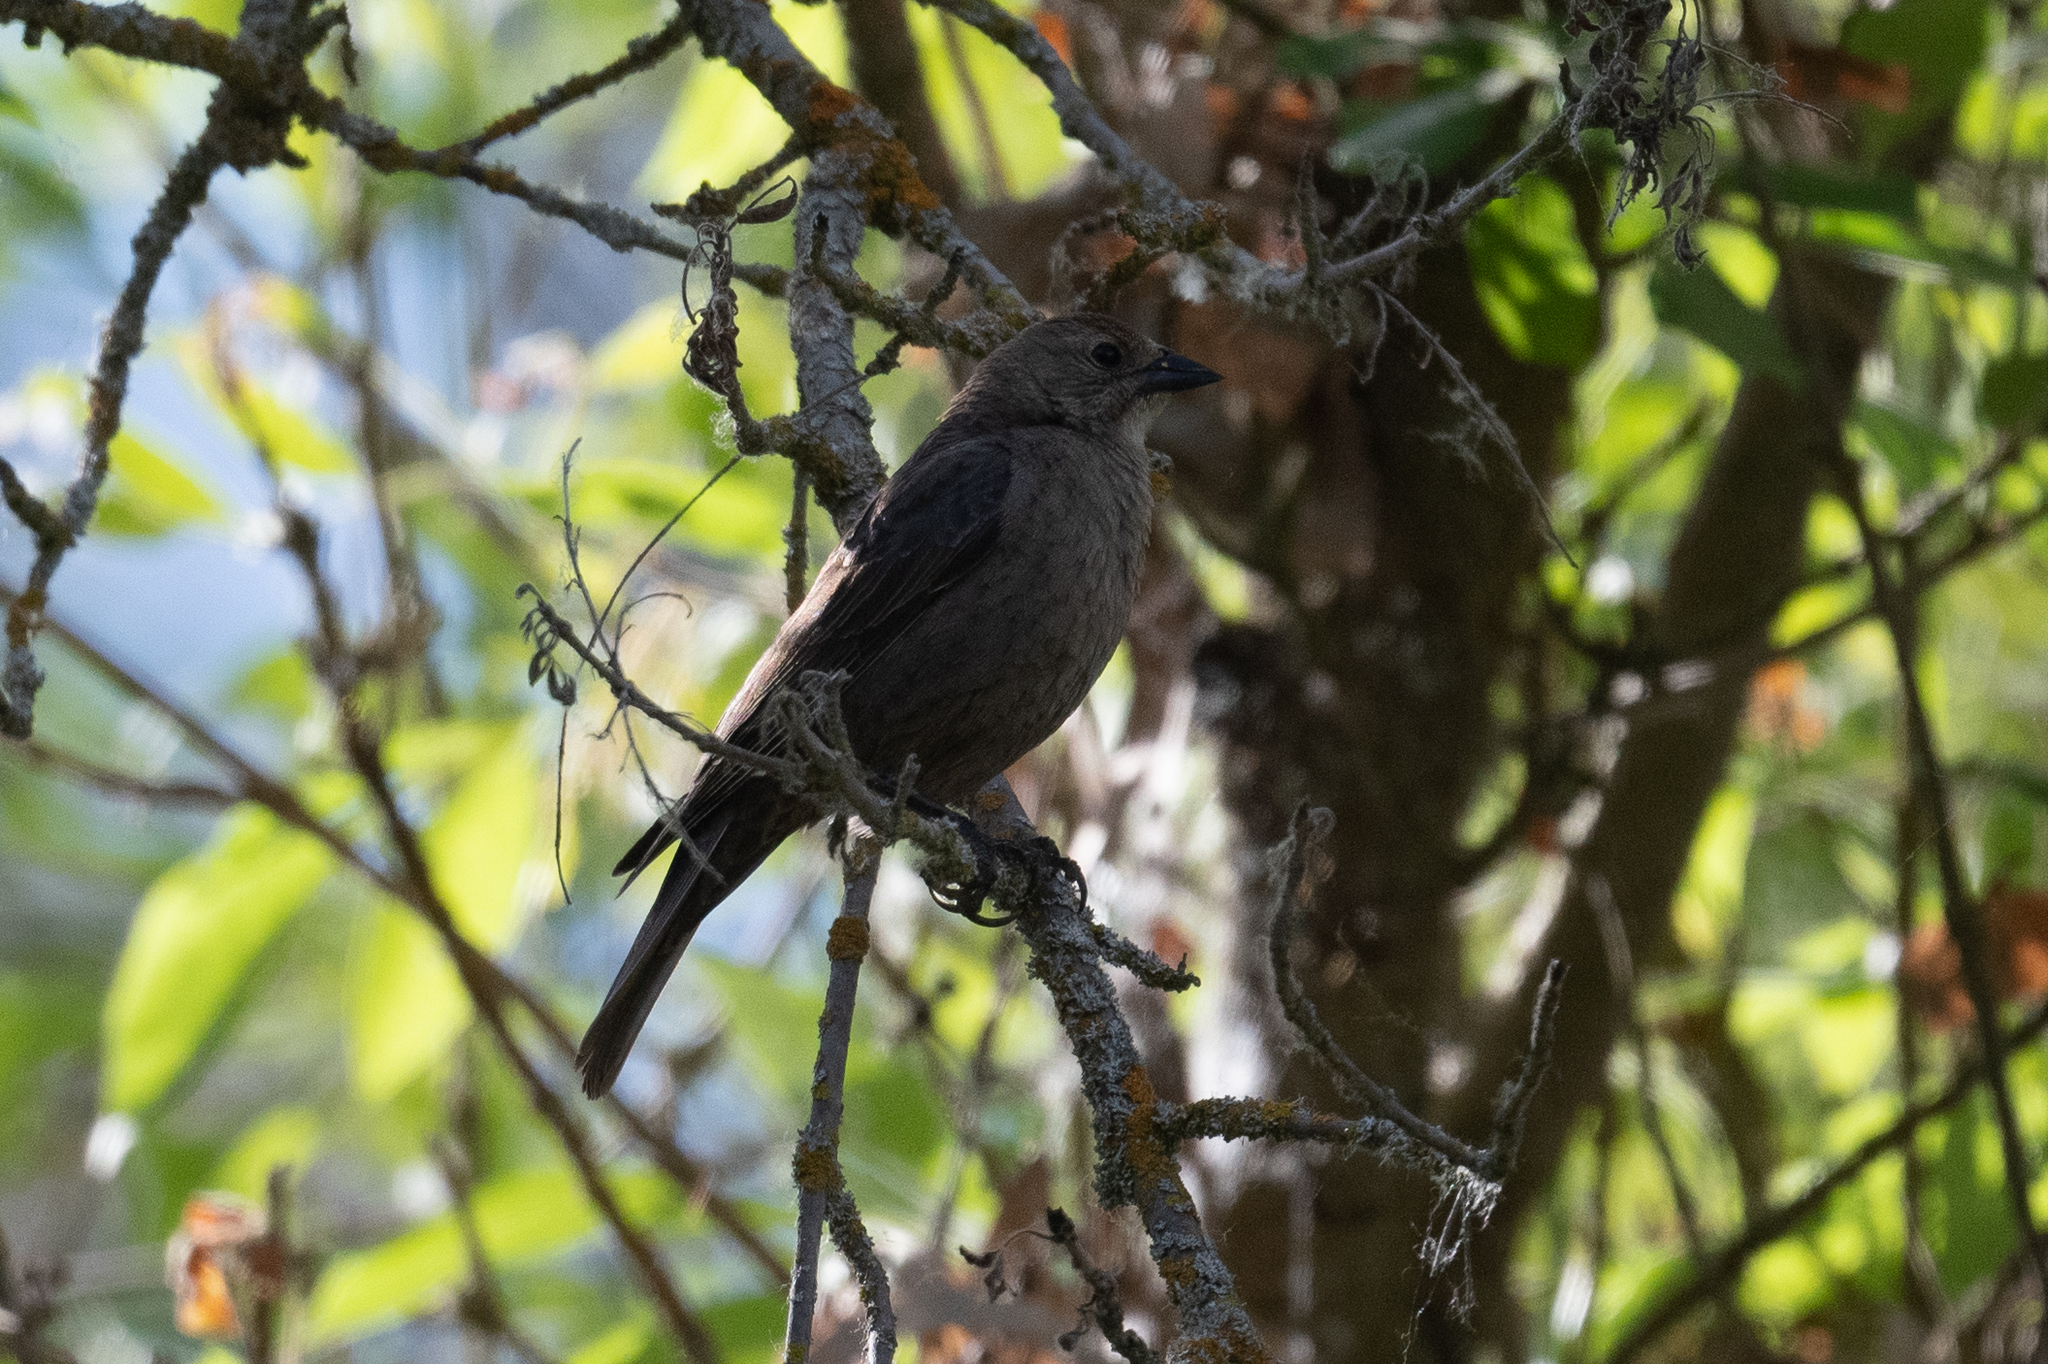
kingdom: Animalia
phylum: Chordata
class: Aves
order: Passeriformes
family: Icteridae
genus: Molothrus
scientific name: Molothrus ater
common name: Brown-headed cowbird
